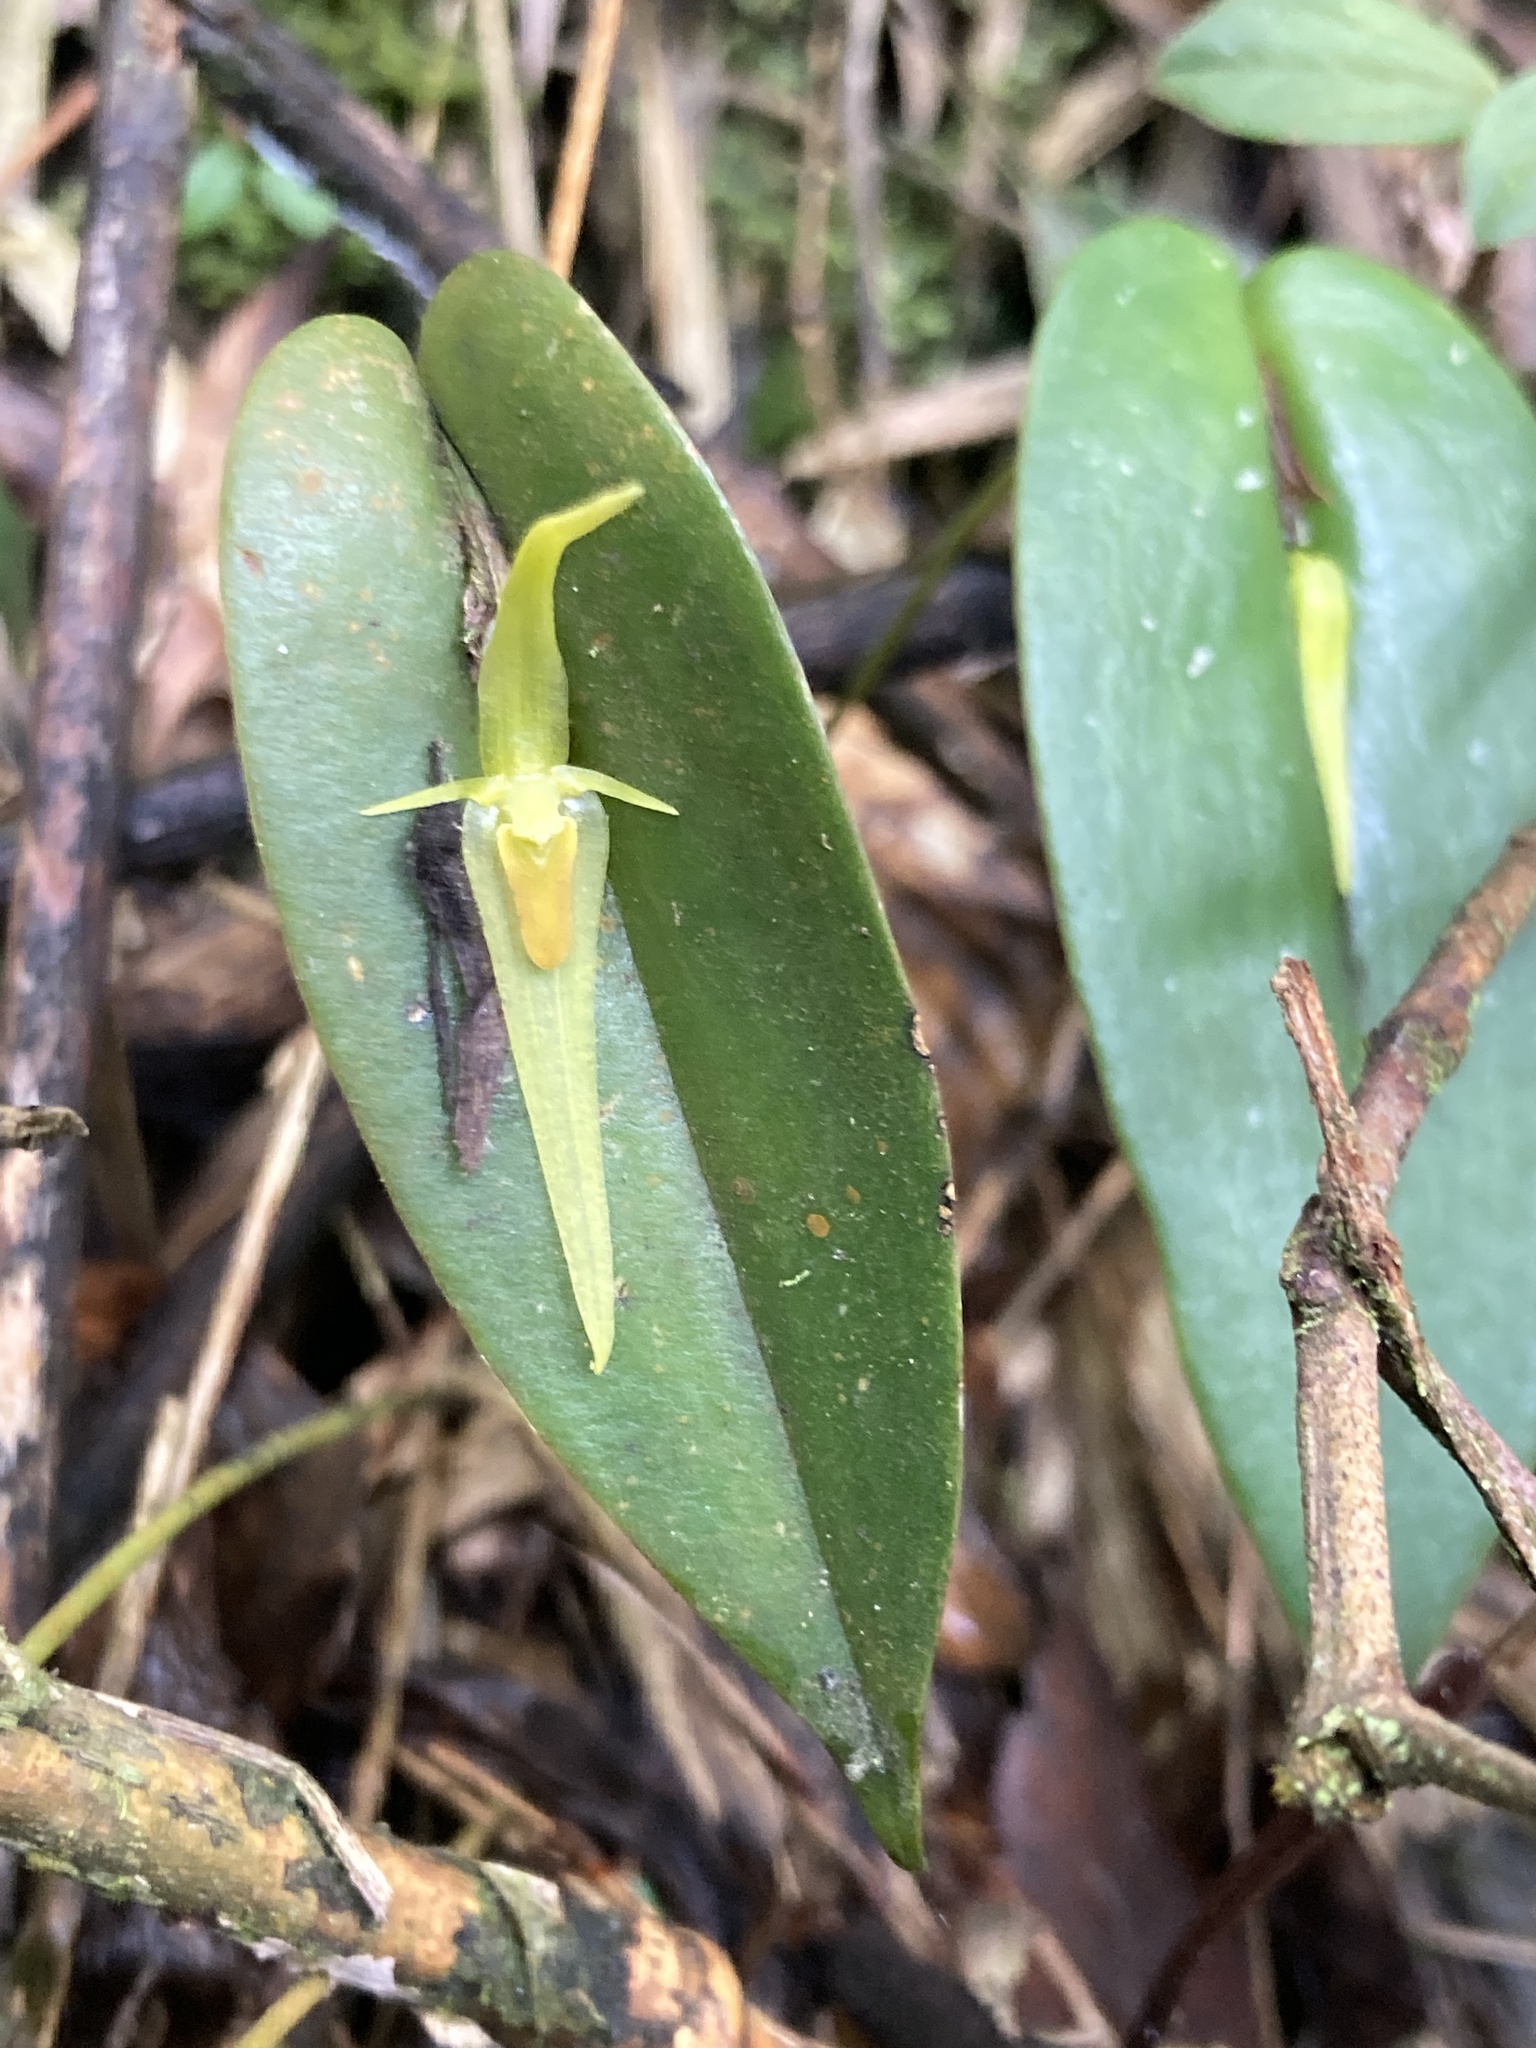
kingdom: Plantae
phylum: Tracheophyta
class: Liliopsida
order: Asparagales
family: Orchidaceae
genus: Pleurothallis
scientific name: Pleurothallis microcardia
